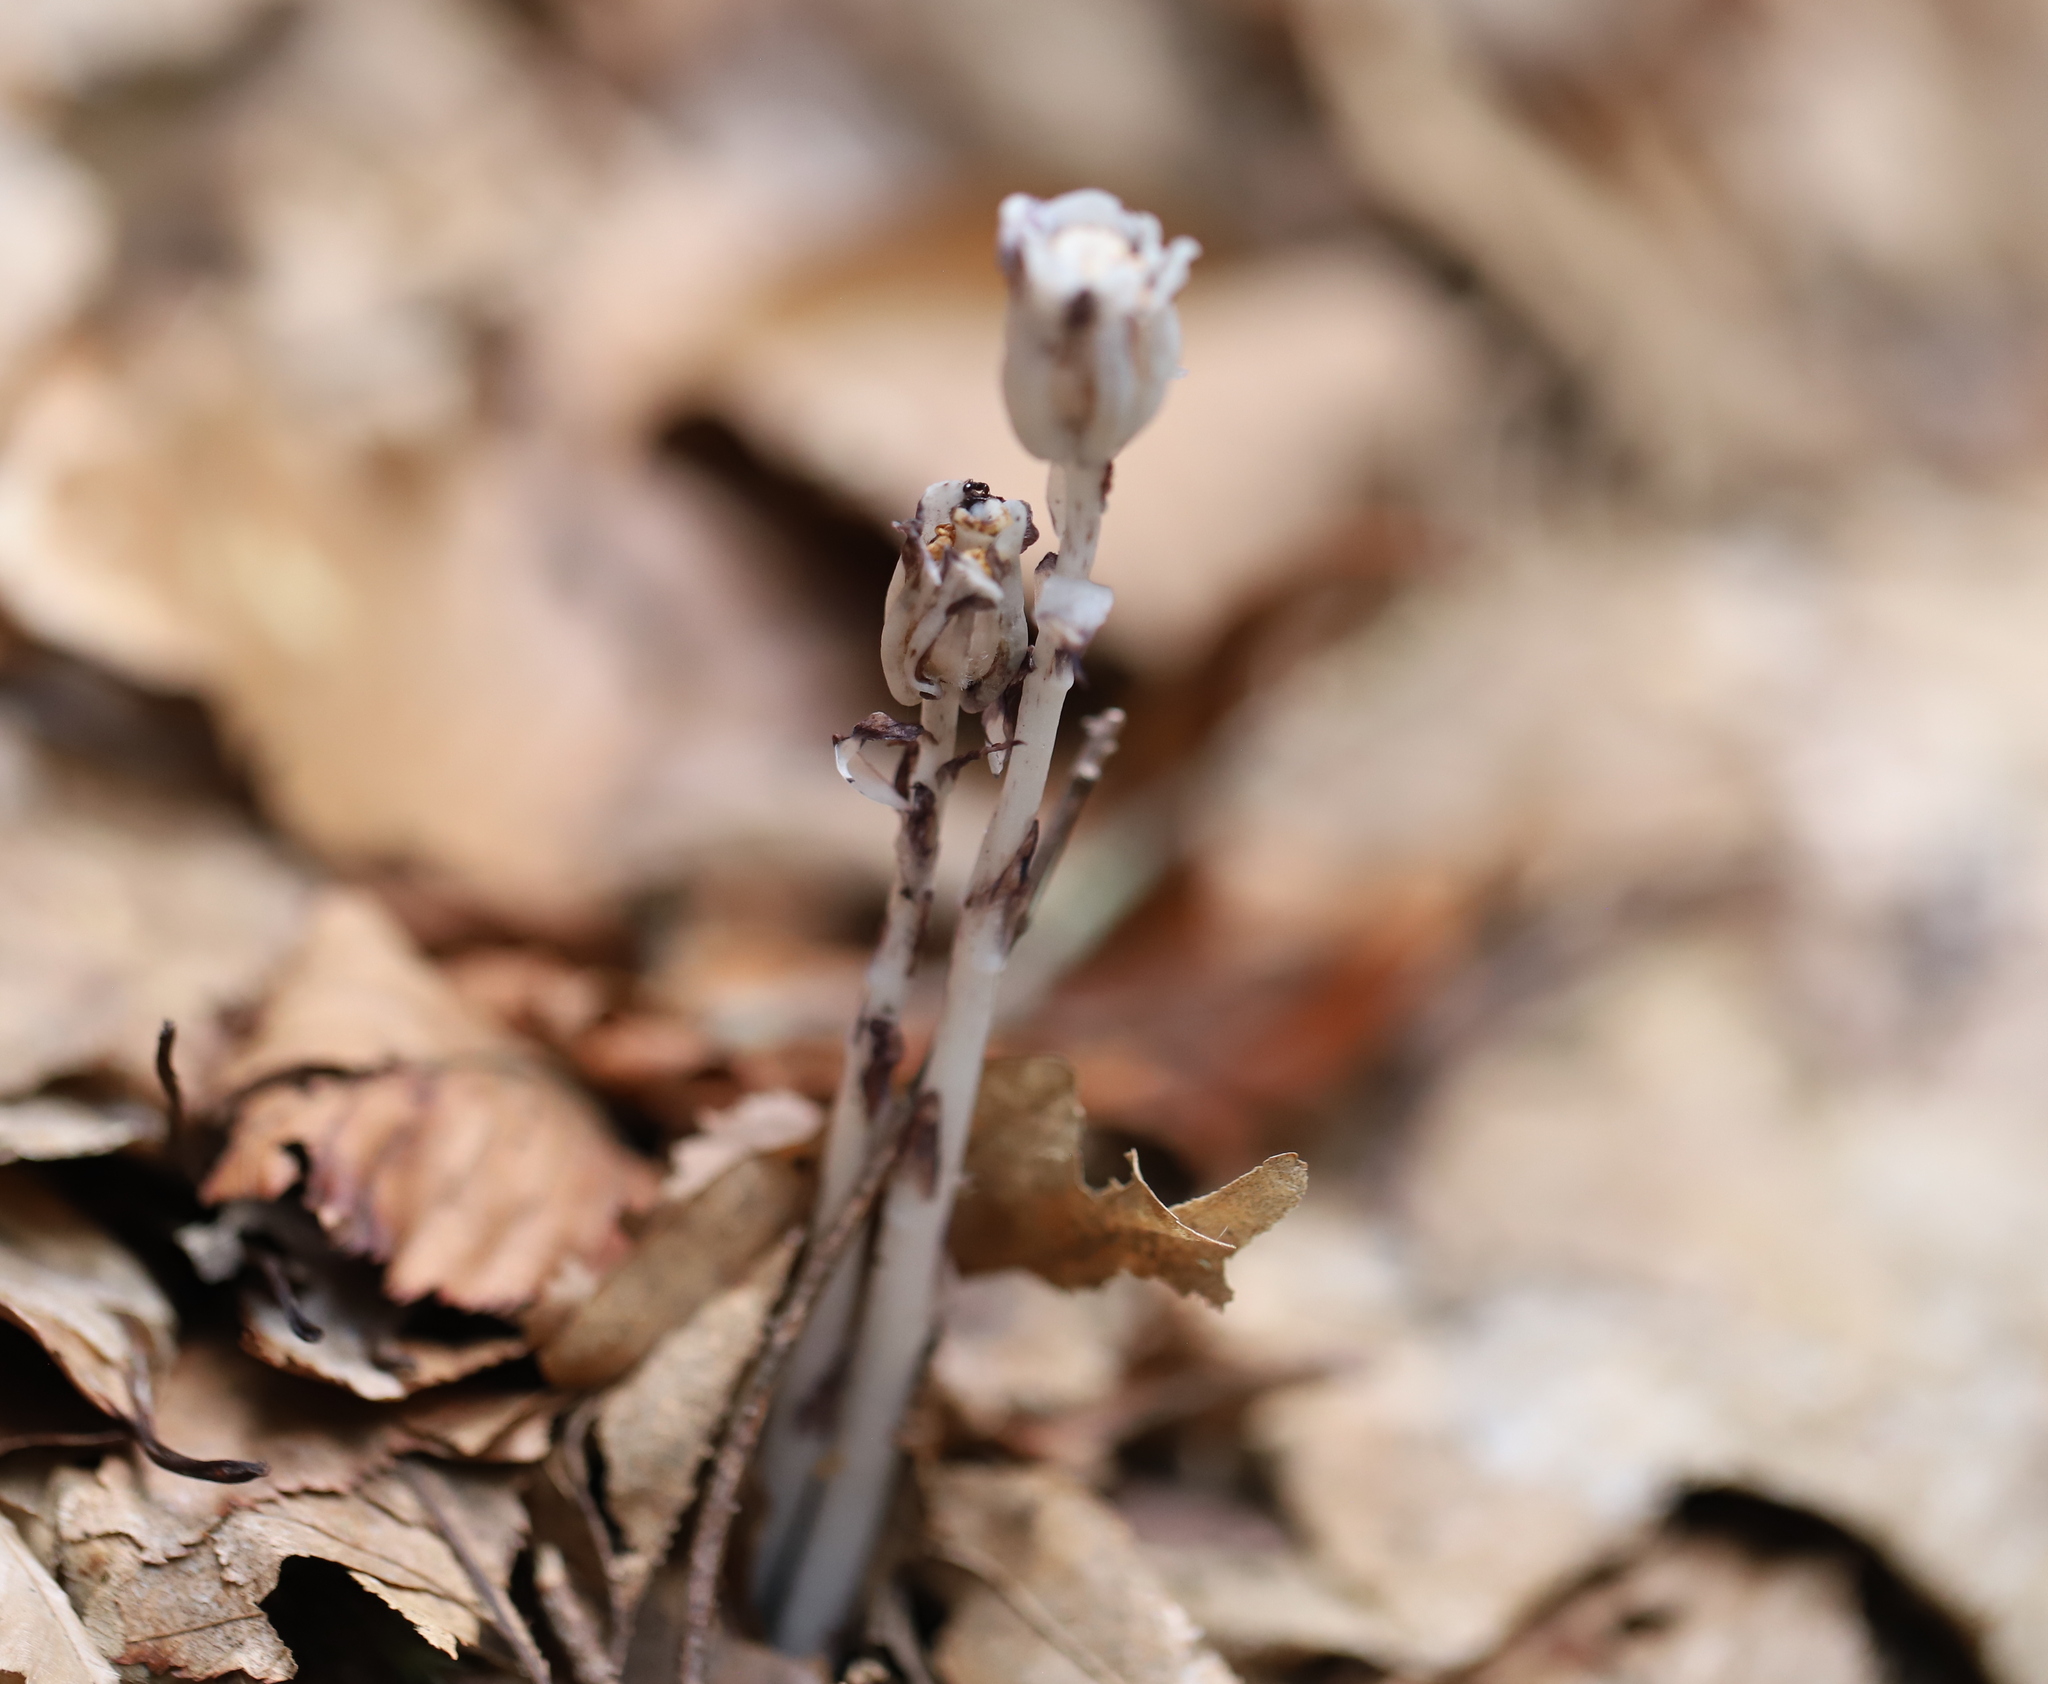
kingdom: Plantae
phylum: Tracheophyta
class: Magnoliopsida
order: Ericales
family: Ericaceae
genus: Monotropa
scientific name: Monotropa uniflora
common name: Convulsion root
